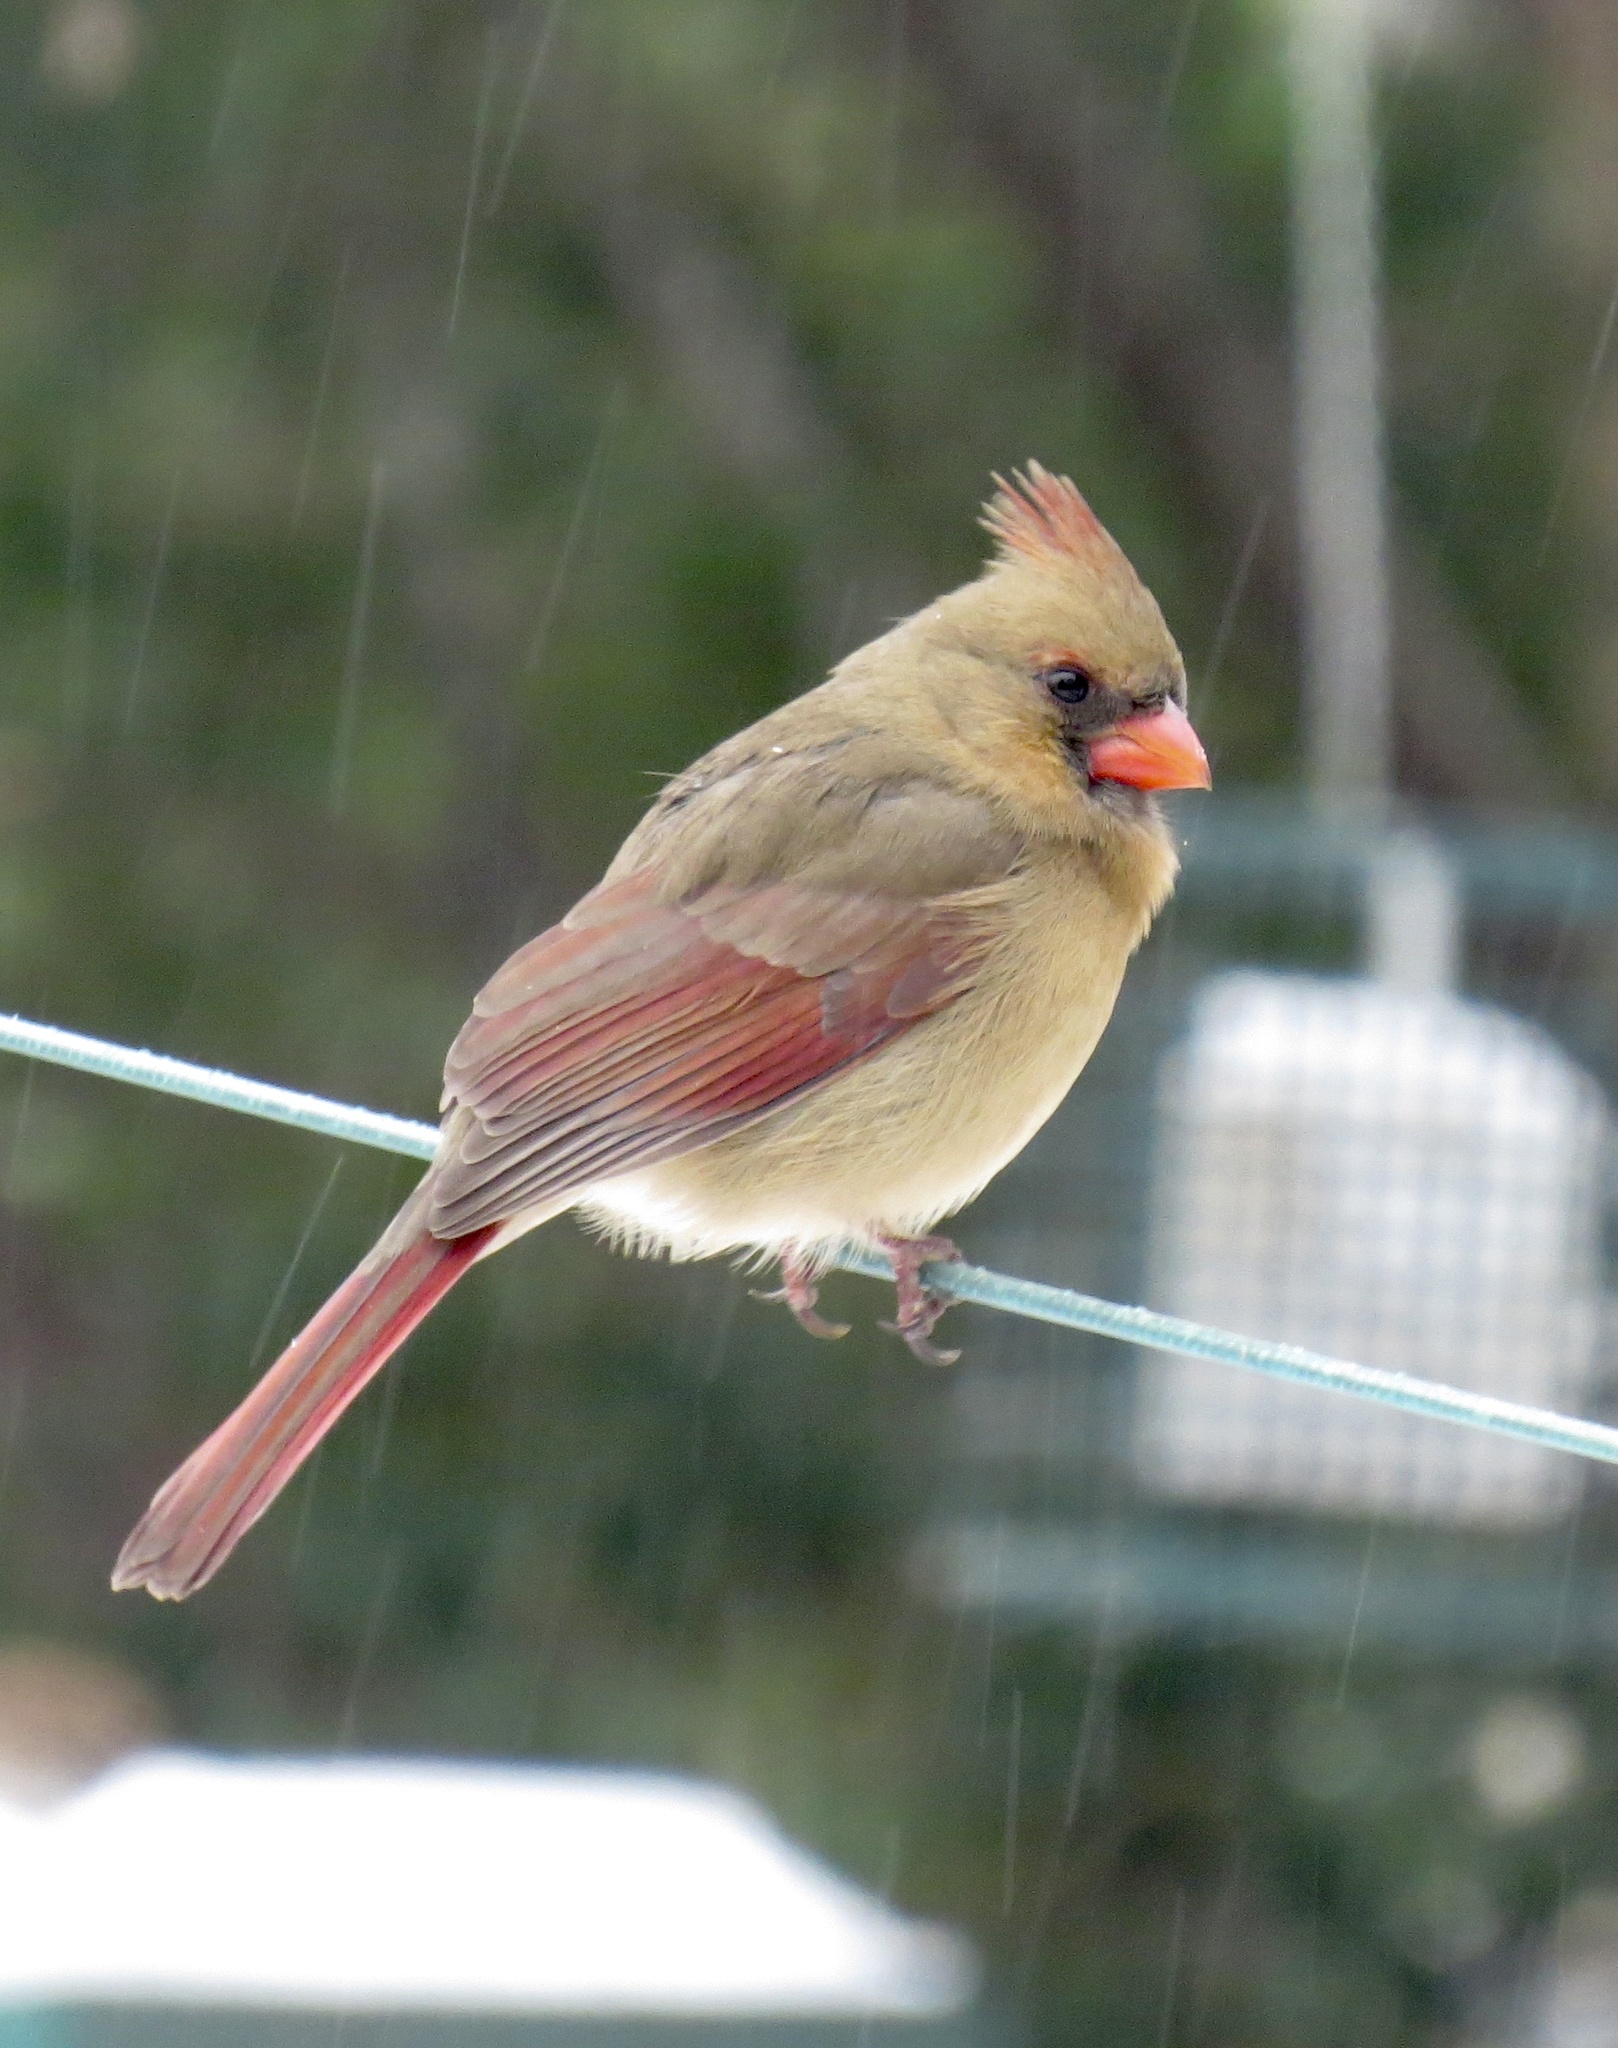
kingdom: Animalia
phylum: Chordata
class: Aves
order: Passeriformes
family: Cardinalidae
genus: Cardinalis
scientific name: Cardinalis cardinalis
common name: Northern cardinal
